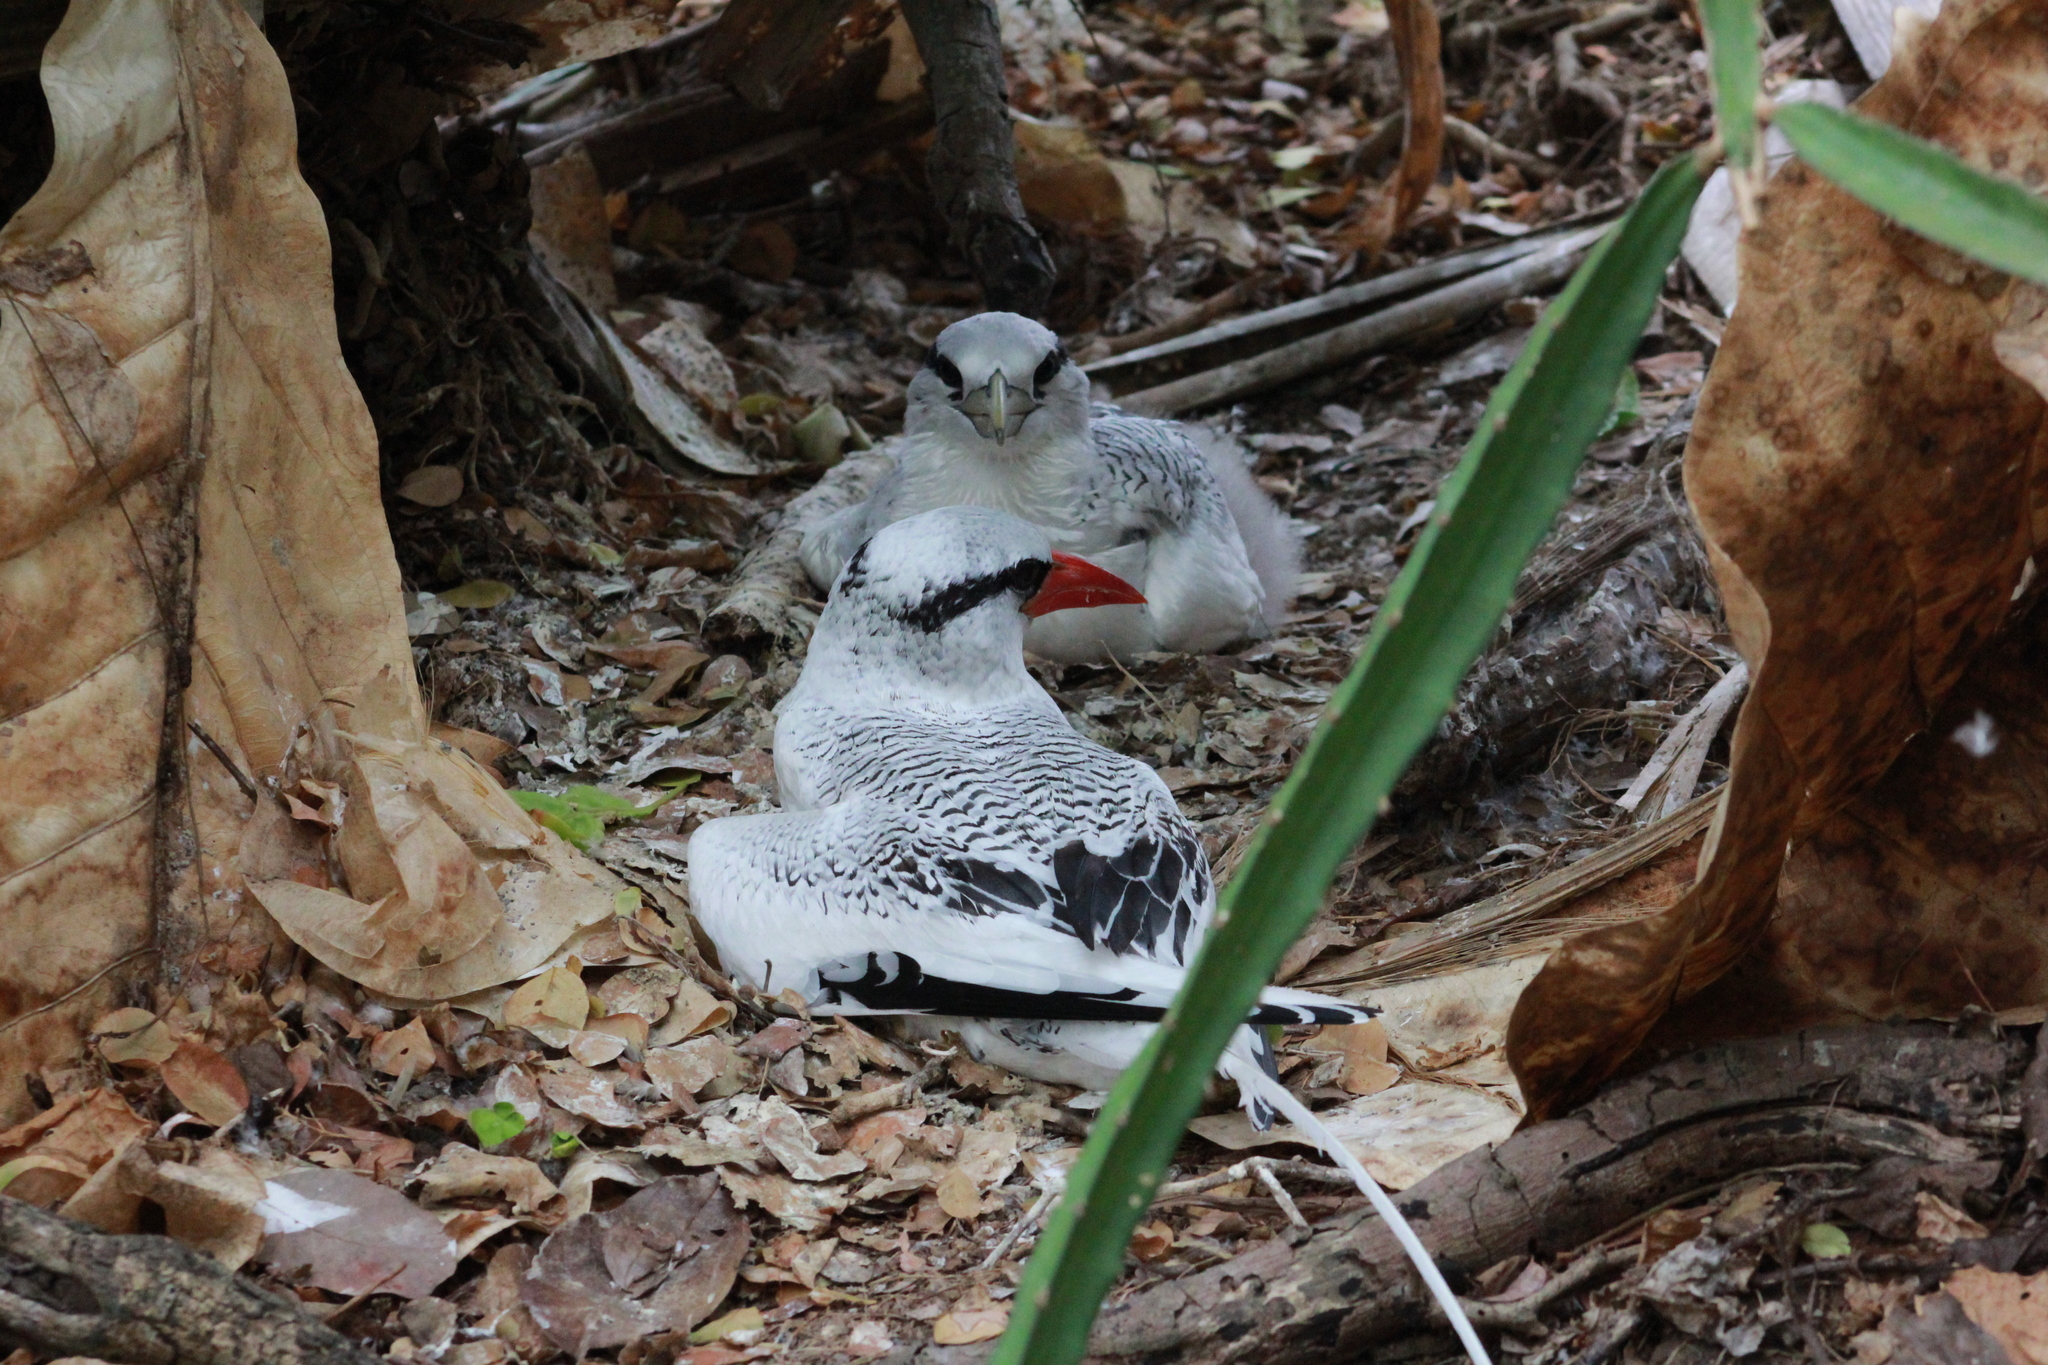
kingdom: Animalia
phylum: Chordata
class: Aves
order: Phaethontiformes
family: Phaethontidae
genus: Phaethon
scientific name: Phaethon aethereus
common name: Red-billed tropicbird
